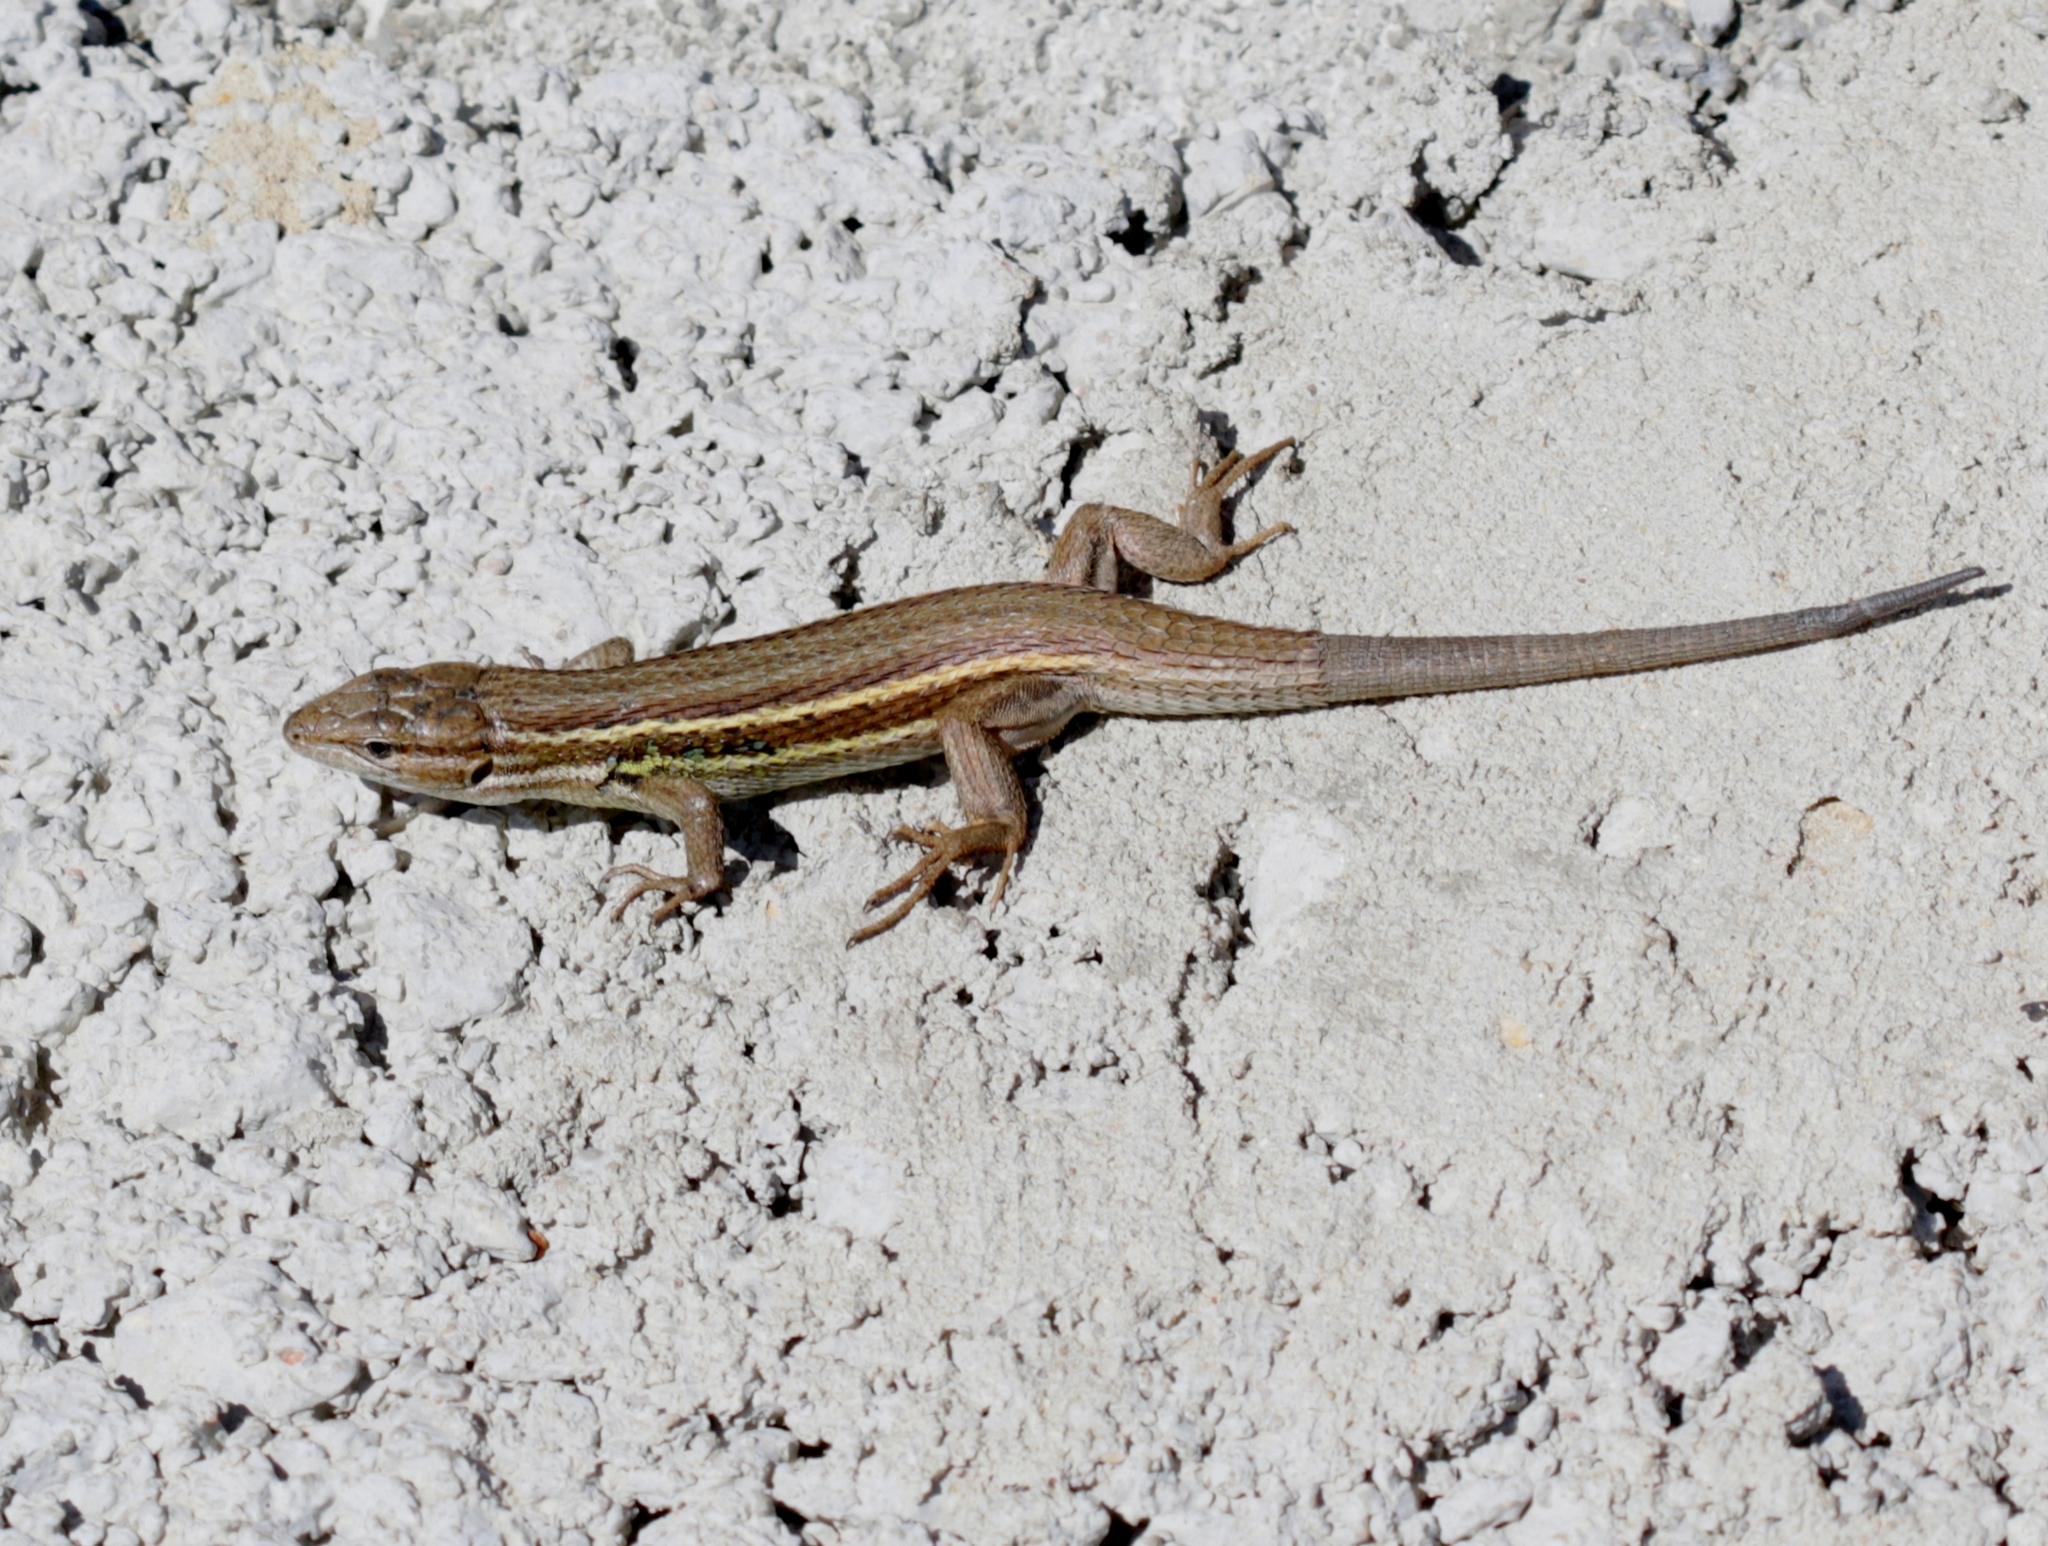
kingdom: Animalia
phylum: Chordata
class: Squamata
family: Lacertidae
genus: Psammodromus
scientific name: Psammodromus algirus
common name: Algerian psammodromus
